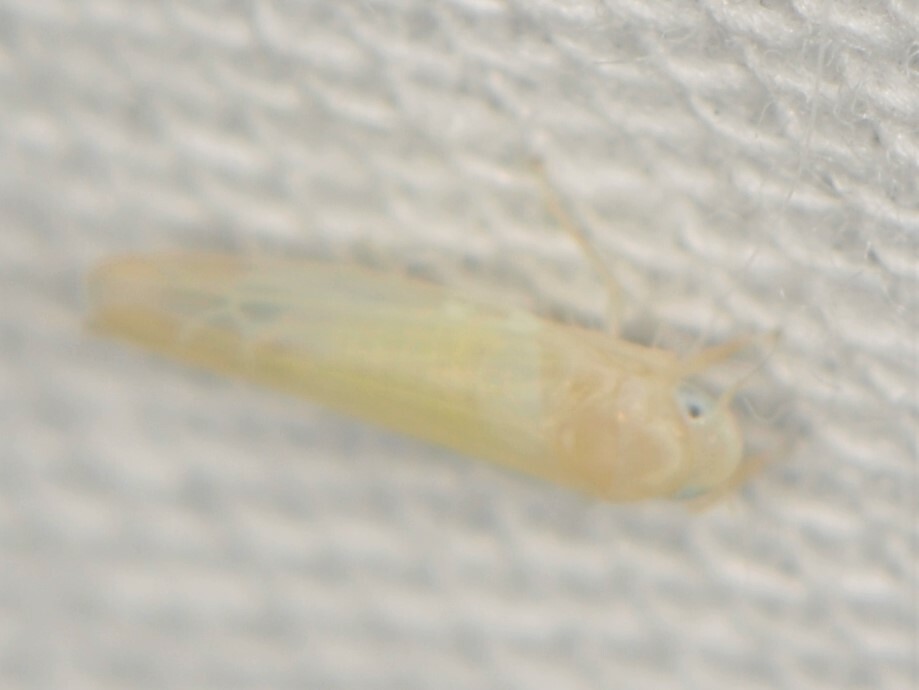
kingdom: Animalia
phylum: Arthropoda
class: Insecta
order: Hemiptera
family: Cicadellidae
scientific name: Cicadellidae
